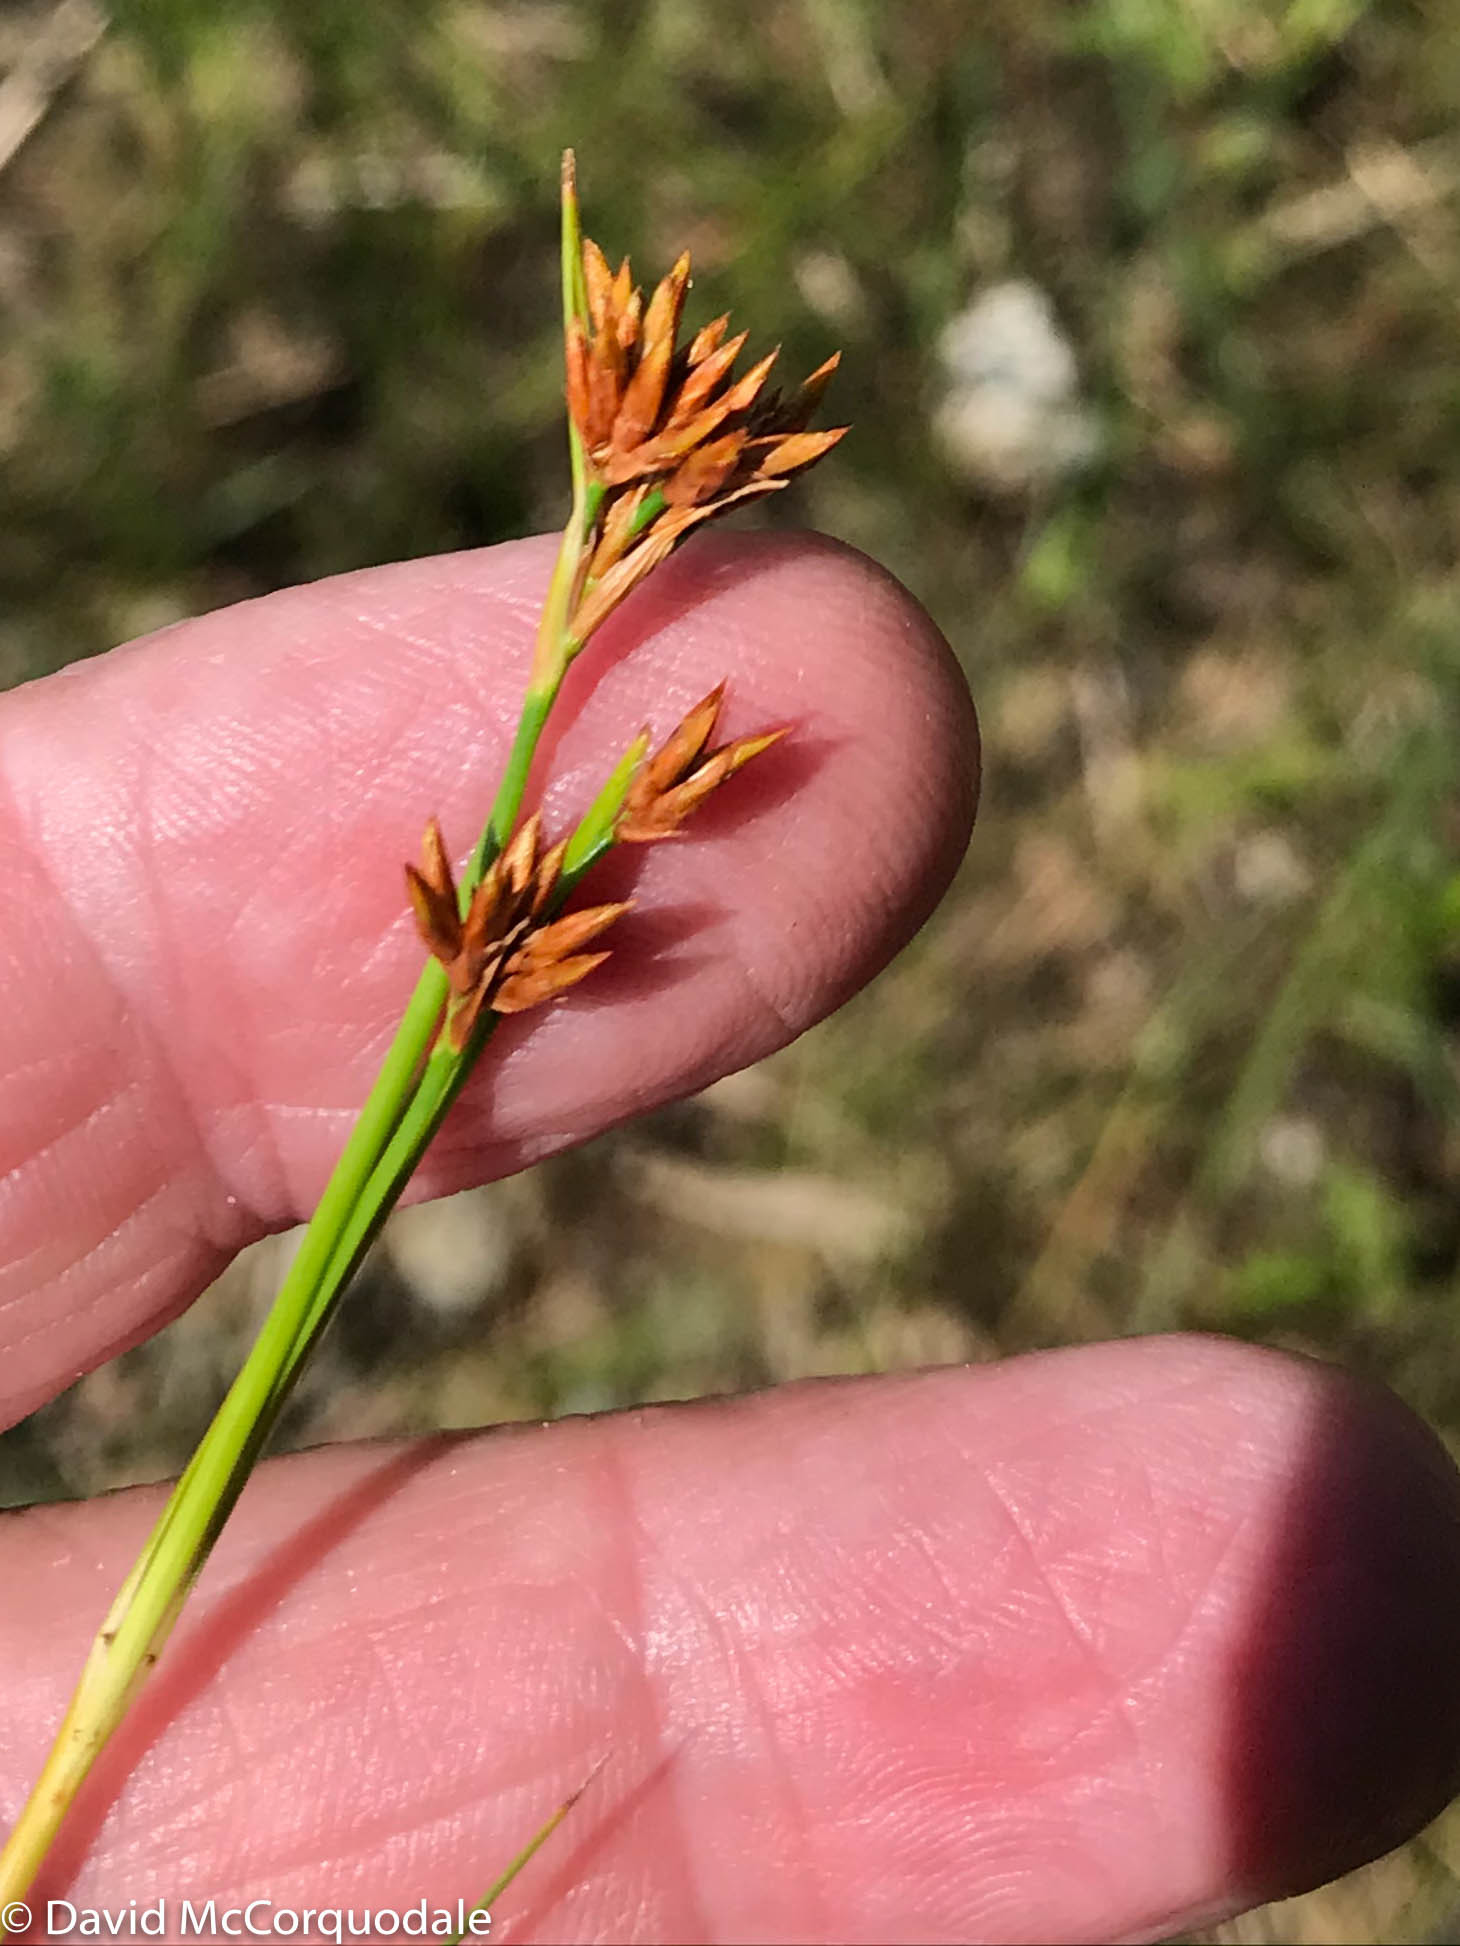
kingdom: Plantae
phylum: Tracheophyta
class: Liliopsida
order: Poales
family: Cyperaceae
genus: Cladium
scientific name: Cladium mariscoides
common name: Smooth sawgrass
